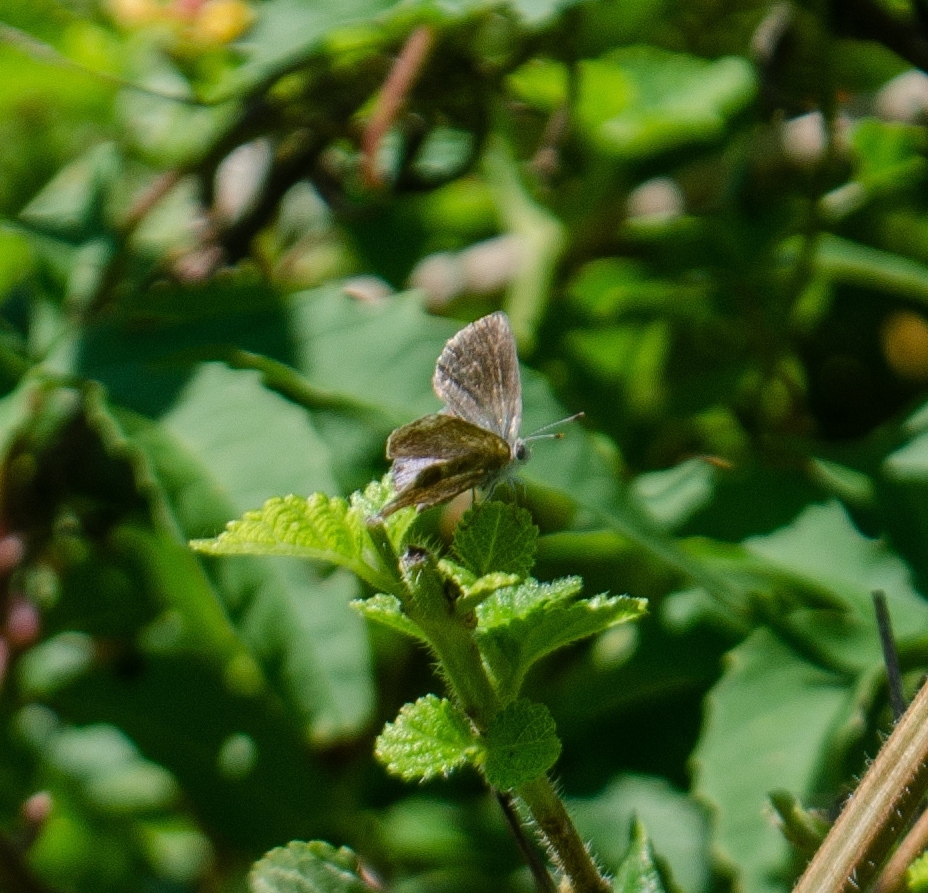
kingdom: Animalia
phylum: Arthropoda
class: Insecta
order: Lepidoptera
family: Lycaenidae
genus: Strymon
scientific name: Strymon bazochii
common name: Lantana scrub-hairstreak
